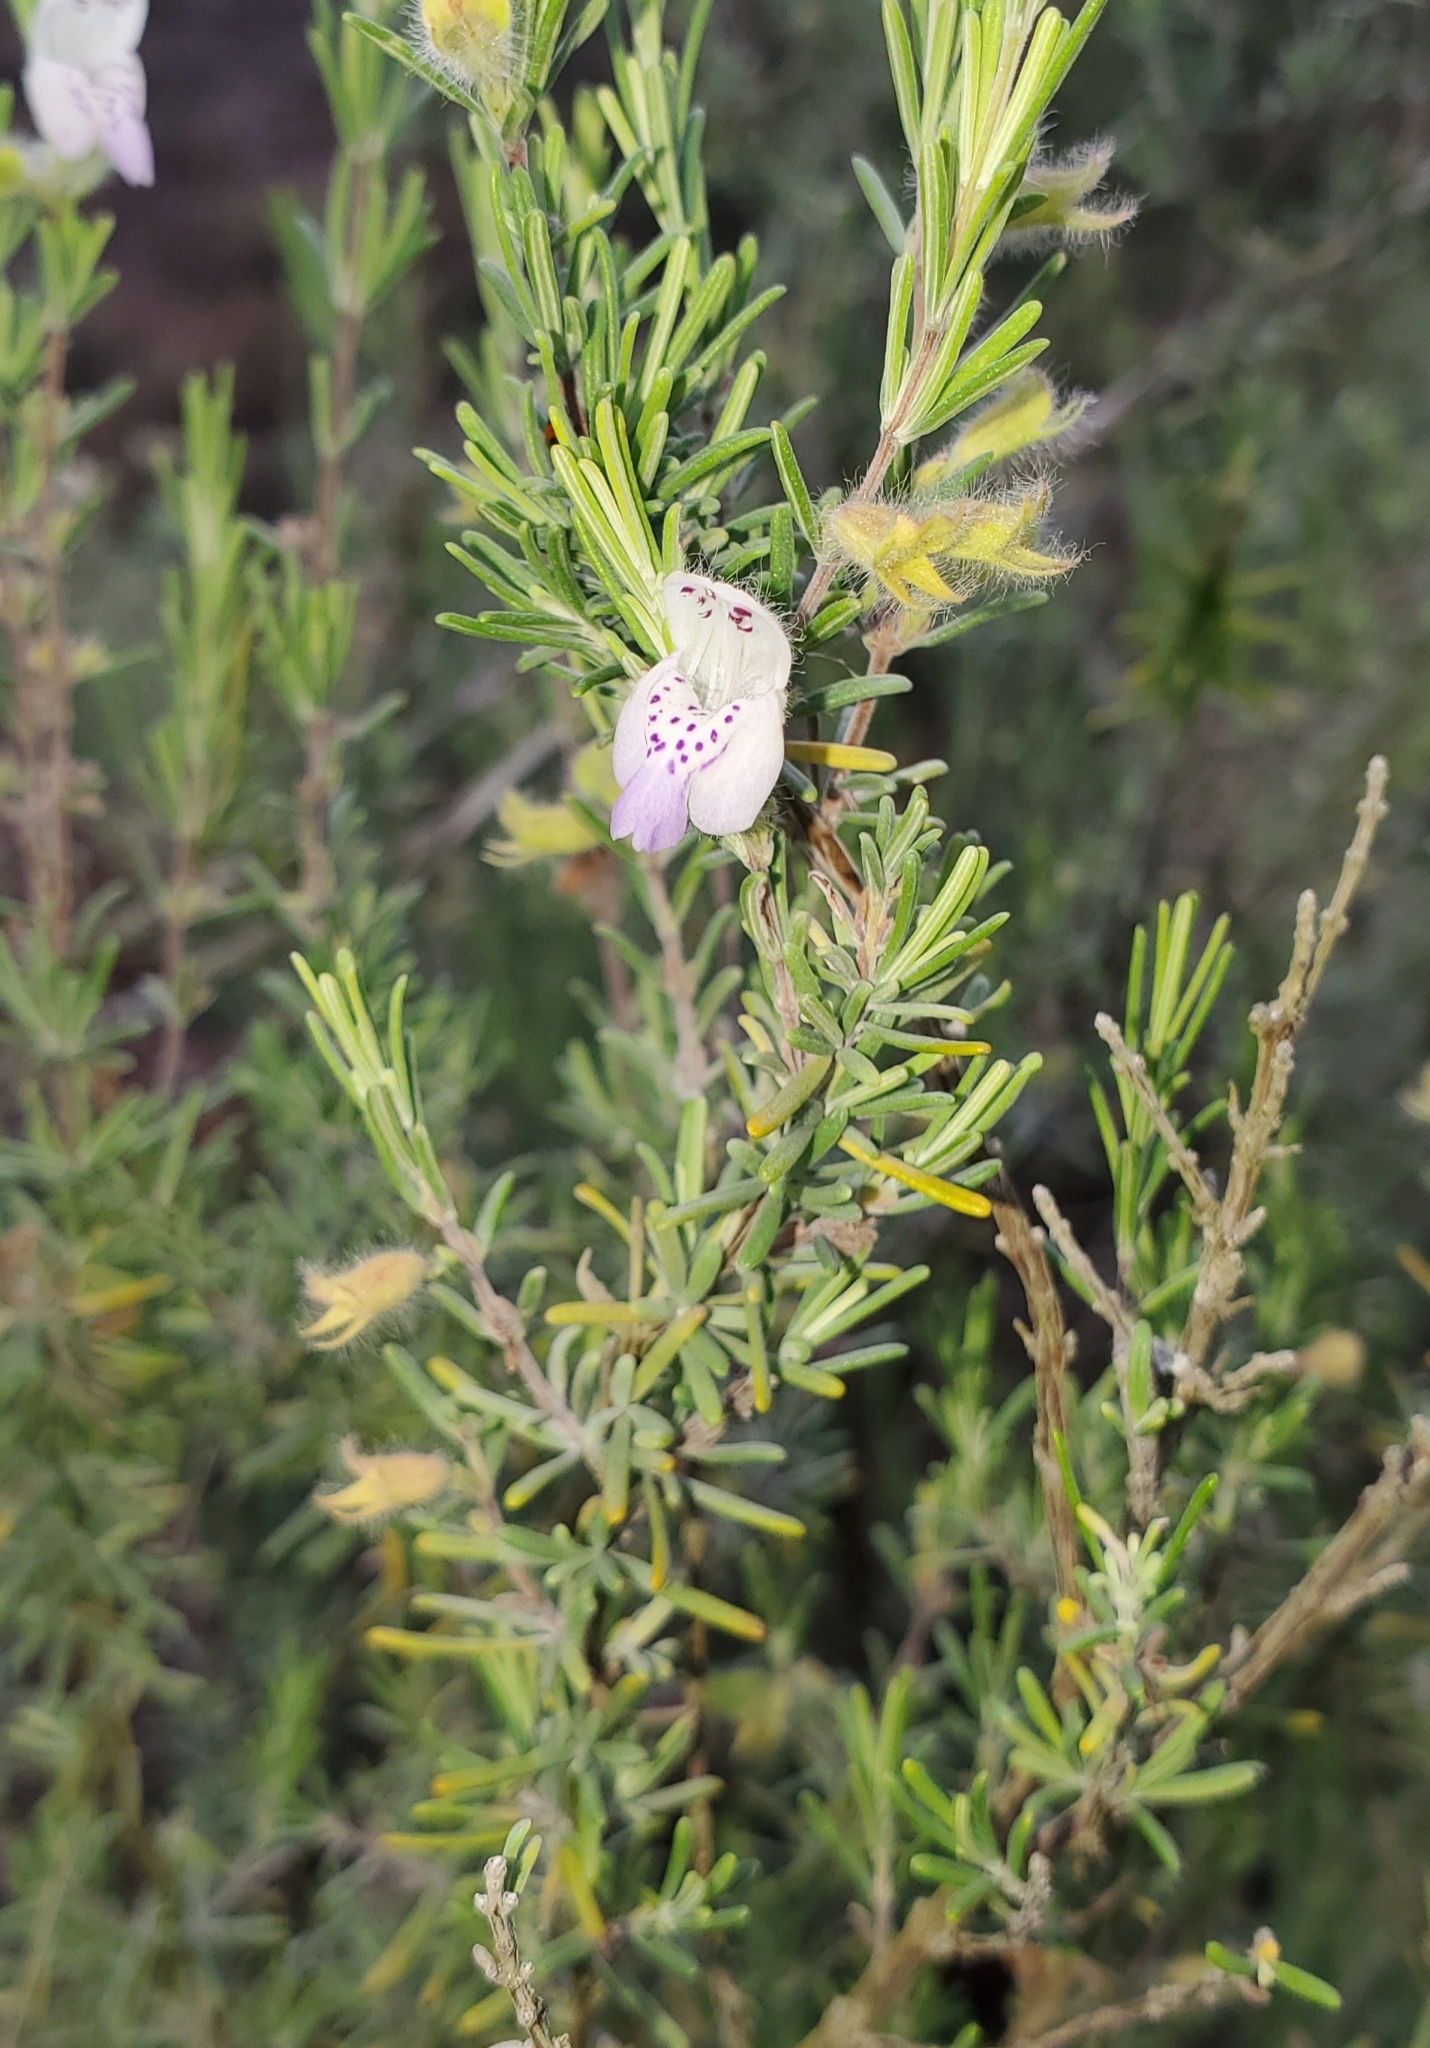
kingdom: Plantae
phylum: Tracheophyta
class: Magnoliopsida
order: Lamiales
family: Lamiaceae
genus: Conradina
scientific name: Conradina canescens
